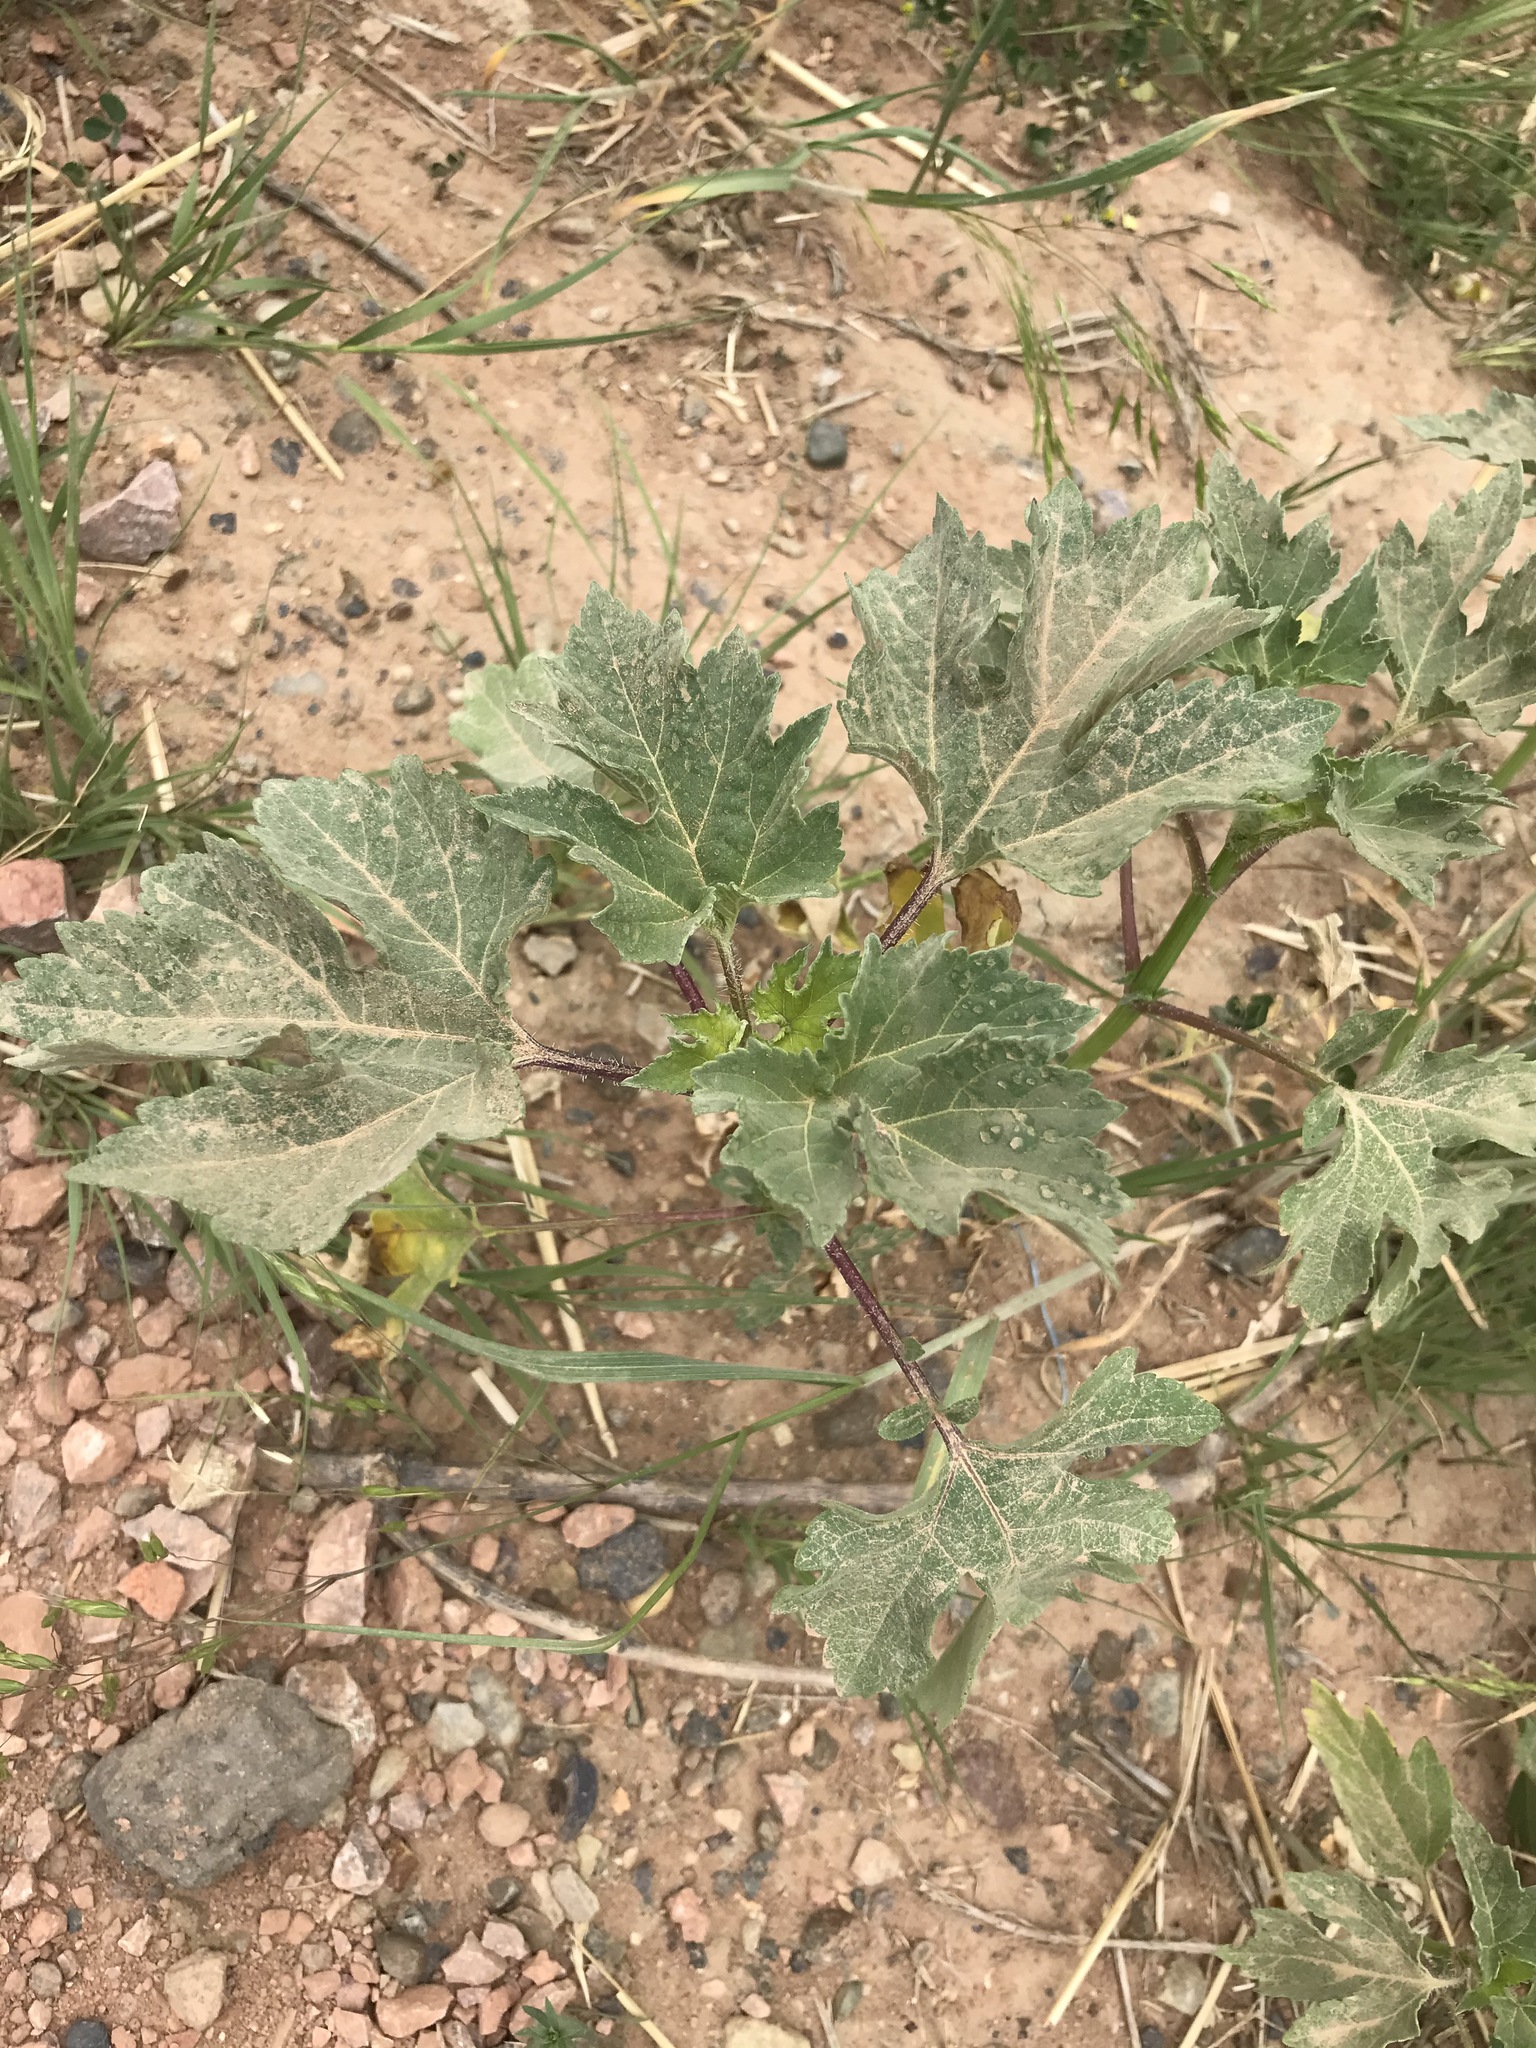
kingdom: Plantae
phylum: Tracheophyta
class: Magnoliopsida
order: Asterales
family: Asteraceae
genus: Cyclachaena
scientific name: Cyclachaena xanthiifolia
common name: Giant sumpweed
